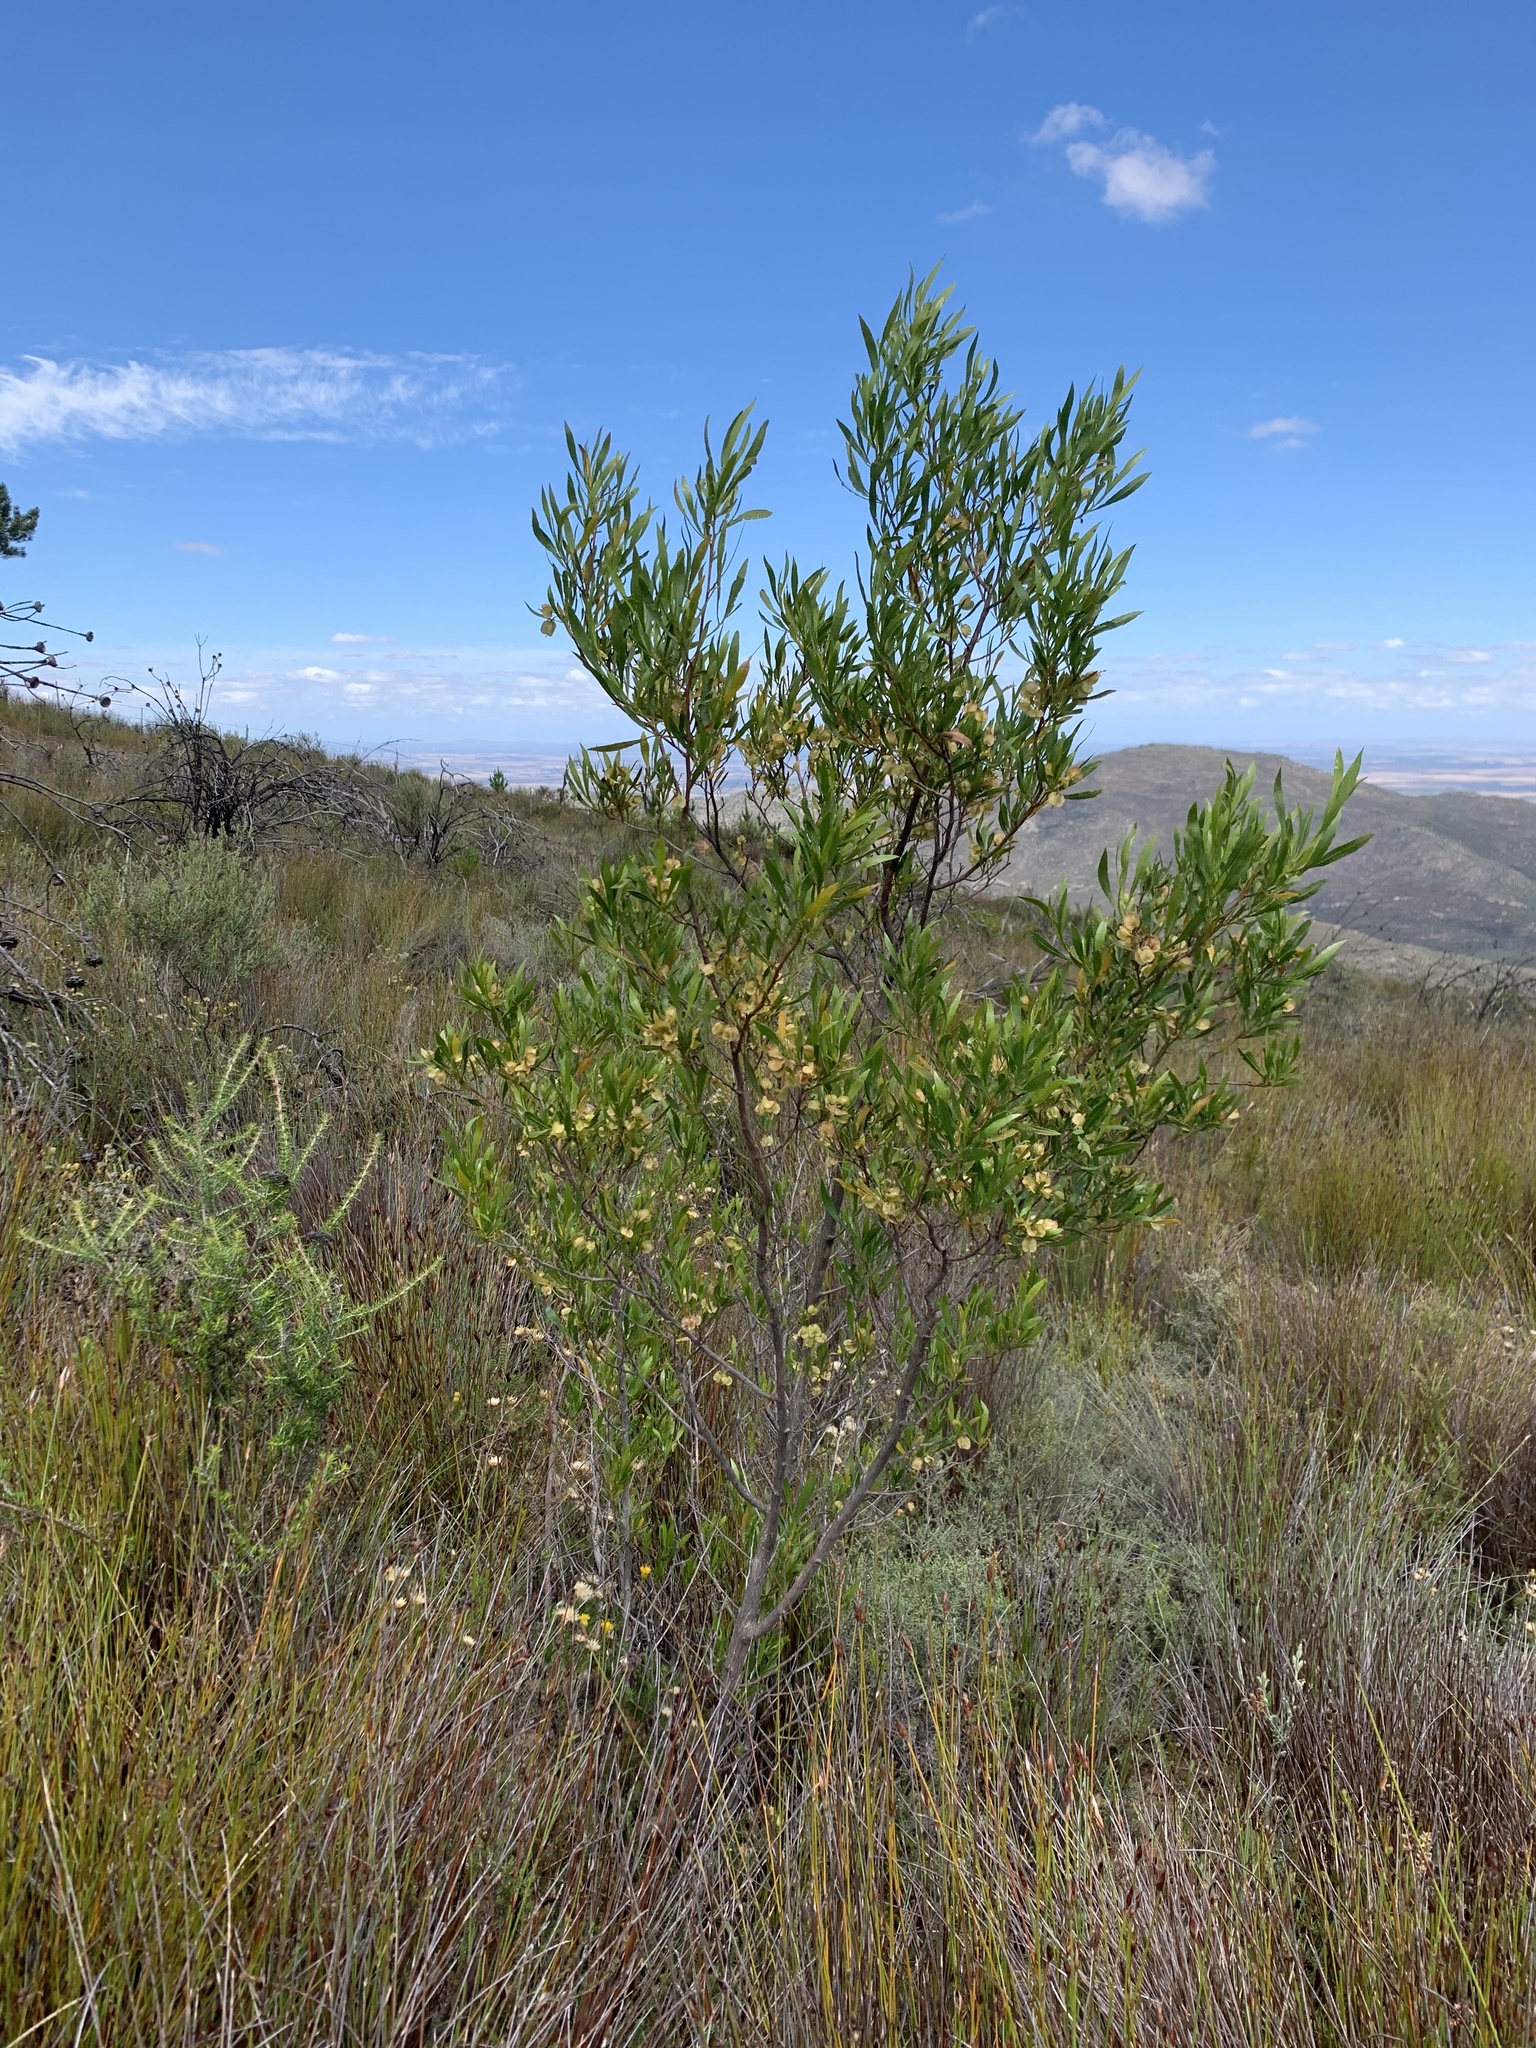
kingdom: Plantae
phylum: Tracheophyta
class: Magnoliopsida
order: Sapindales
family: Sapindaceae
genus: Dodonaea
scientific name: Dodonaea viscosa
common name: Hopbush
